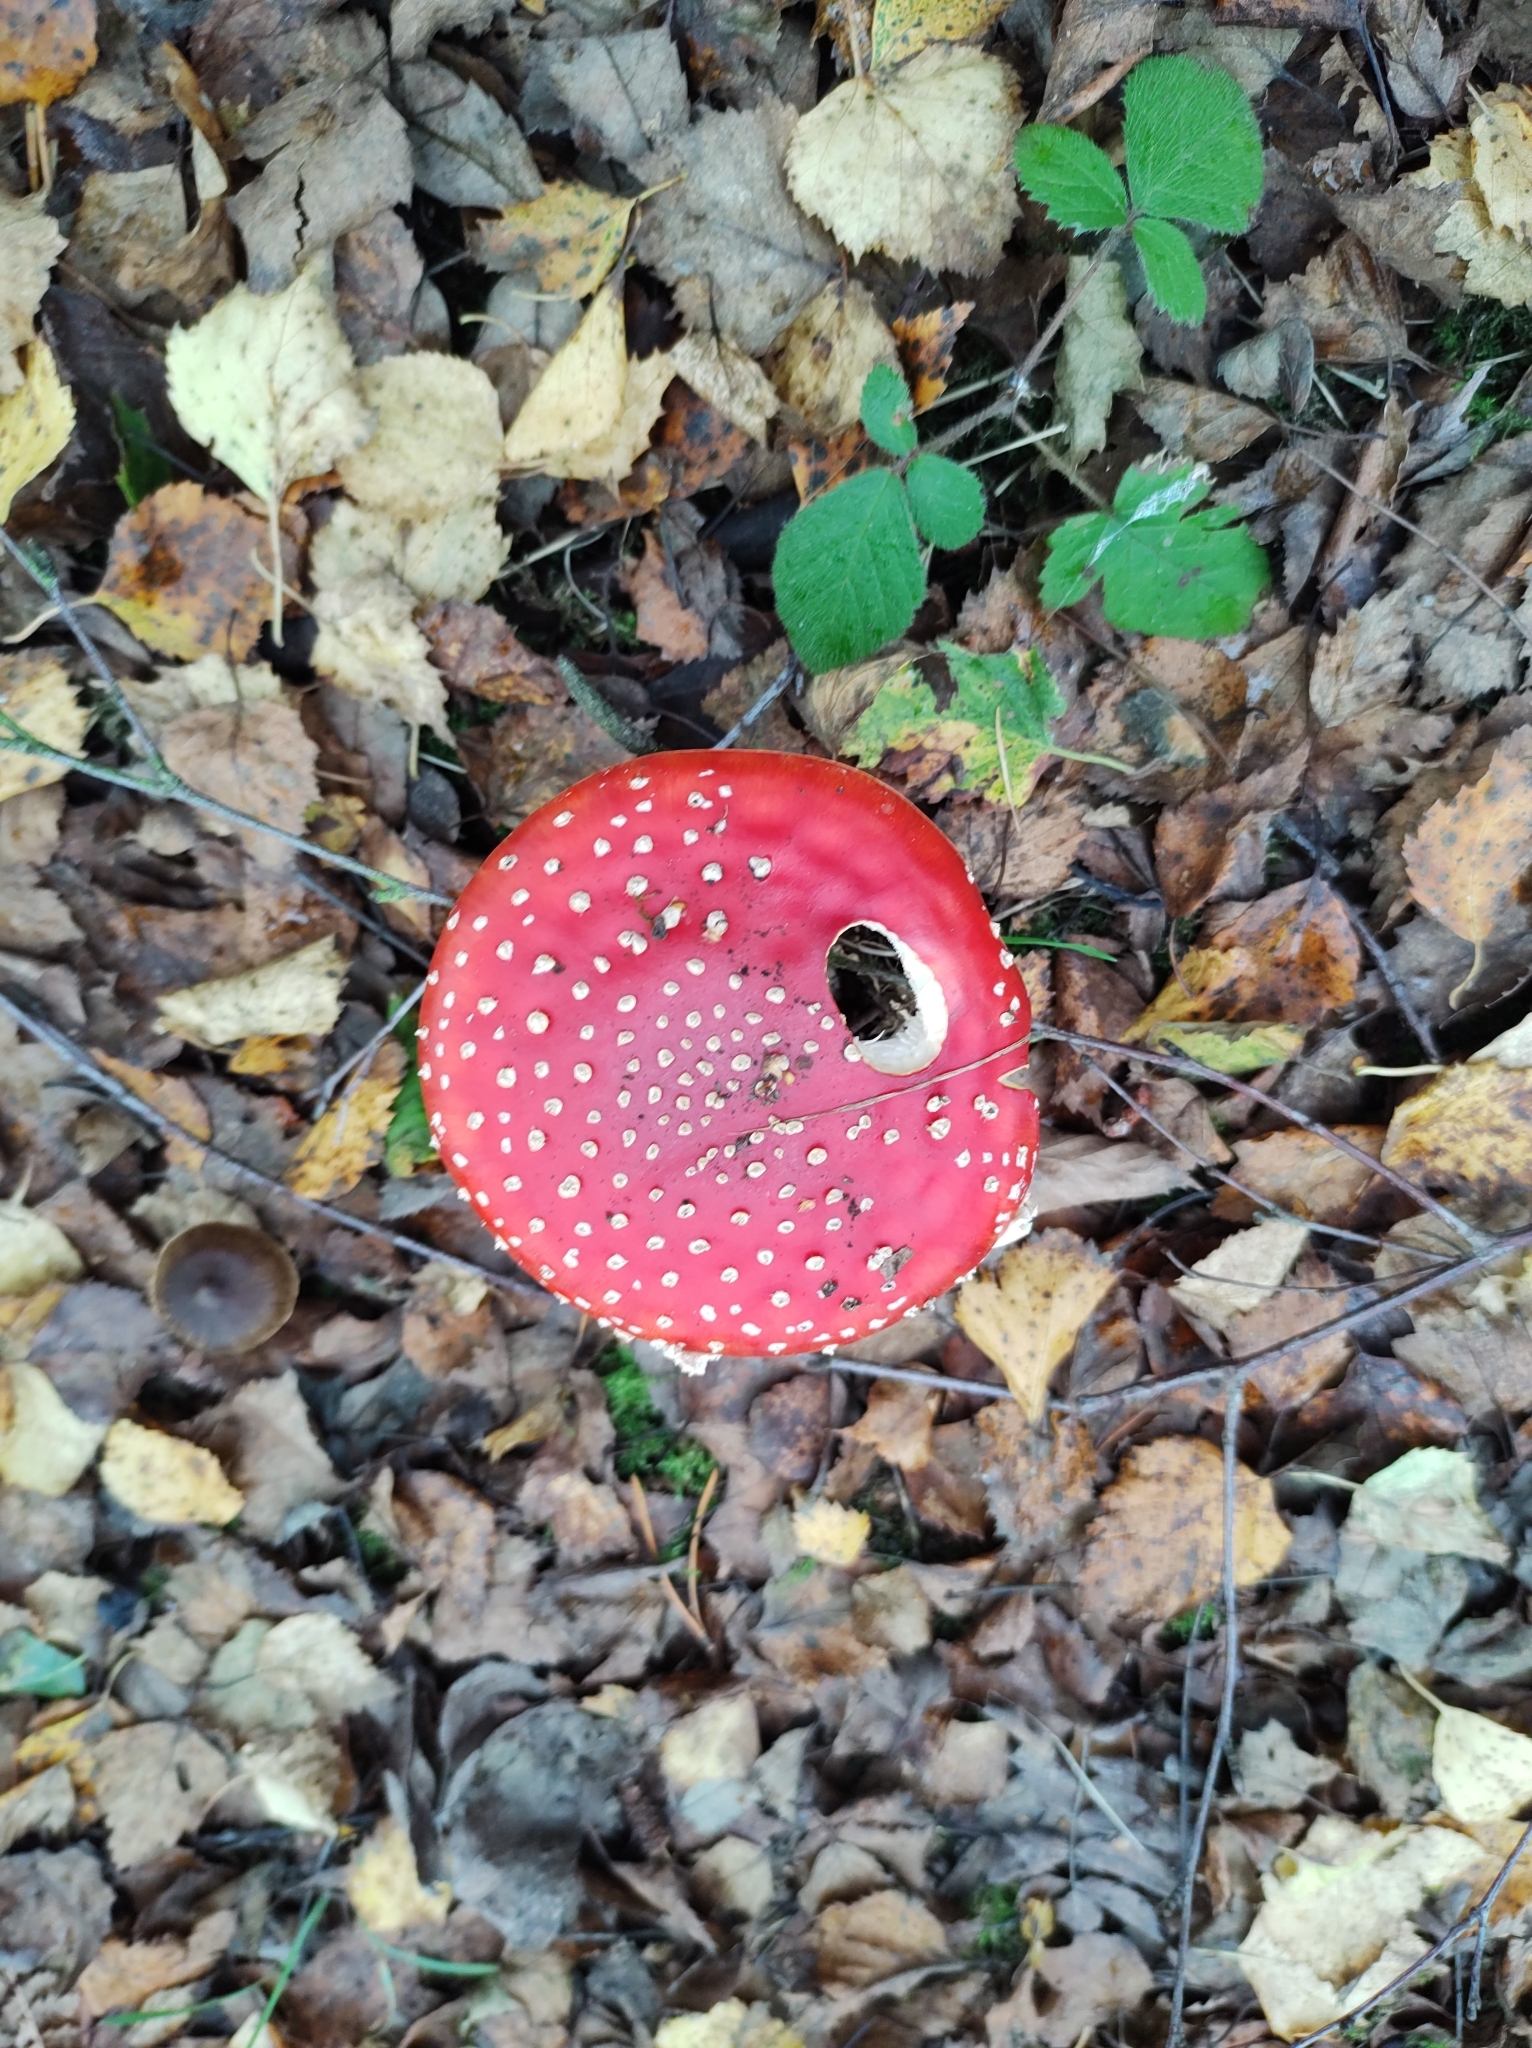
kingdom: Fungi
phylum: Basidiomycota
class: Agaricomycetes
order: Agaricales
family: Amanitaceae
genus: Amanita
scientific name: Amanita muscaria
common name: Fly agaric
